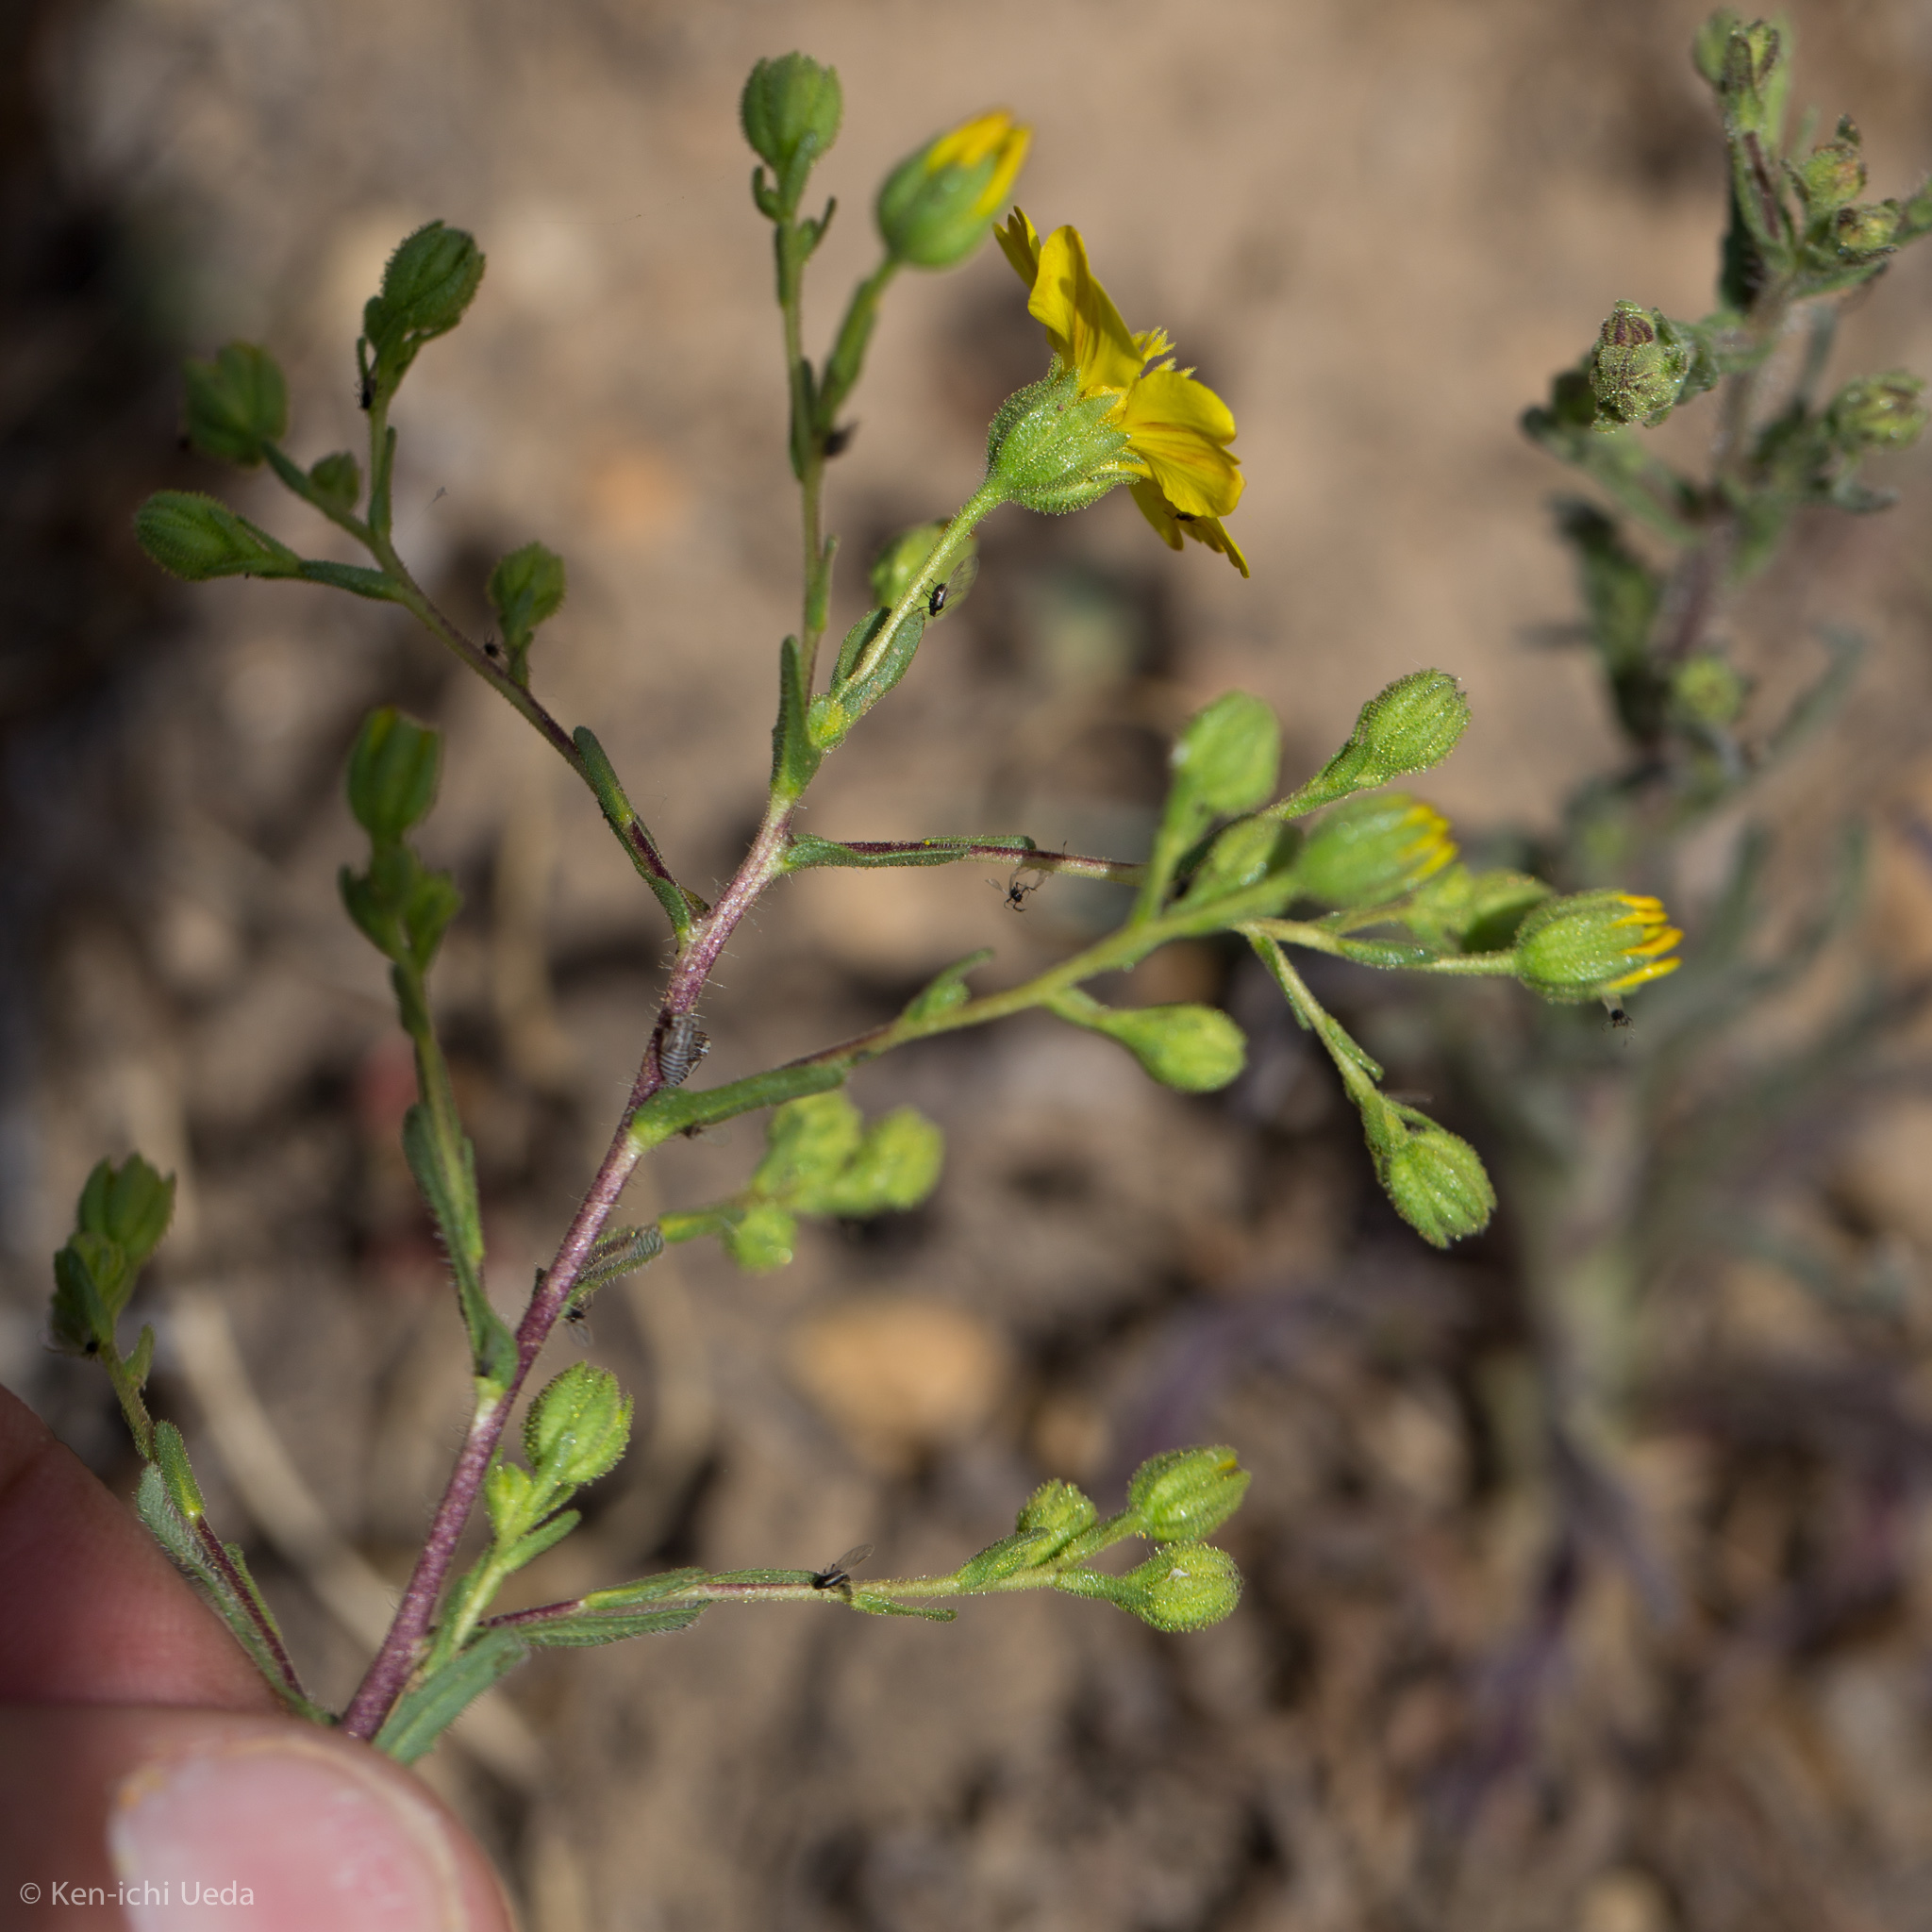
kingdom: Plantae
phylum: Tracheophyta
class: Magnoliopsida
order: Asterales
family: Asteraceae
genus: Deinandra
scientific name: Deinandra kelloggii
